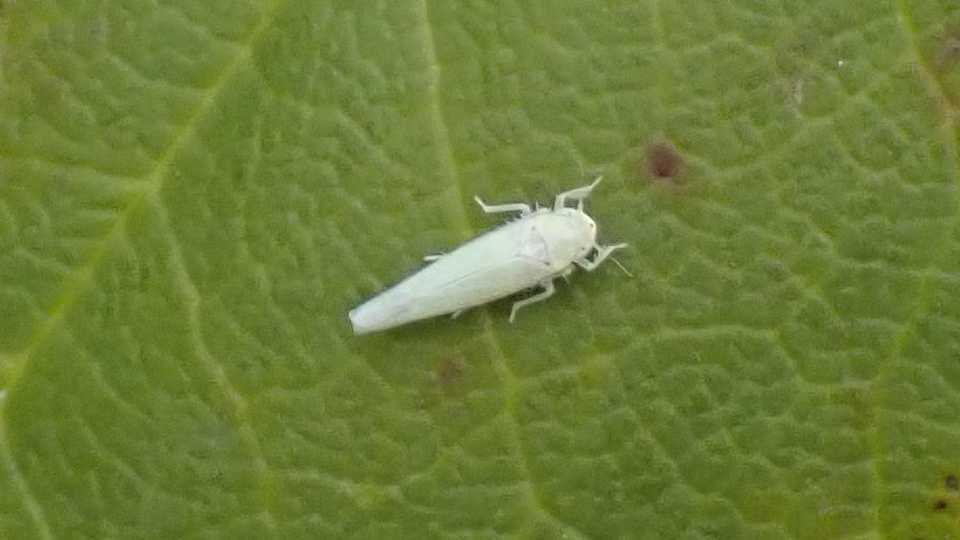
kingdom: Animalia
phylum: Arthropoda
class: Insecta
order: Hemiptera
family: Cicadellidae
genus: Zygina
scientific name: Zygina nivea
